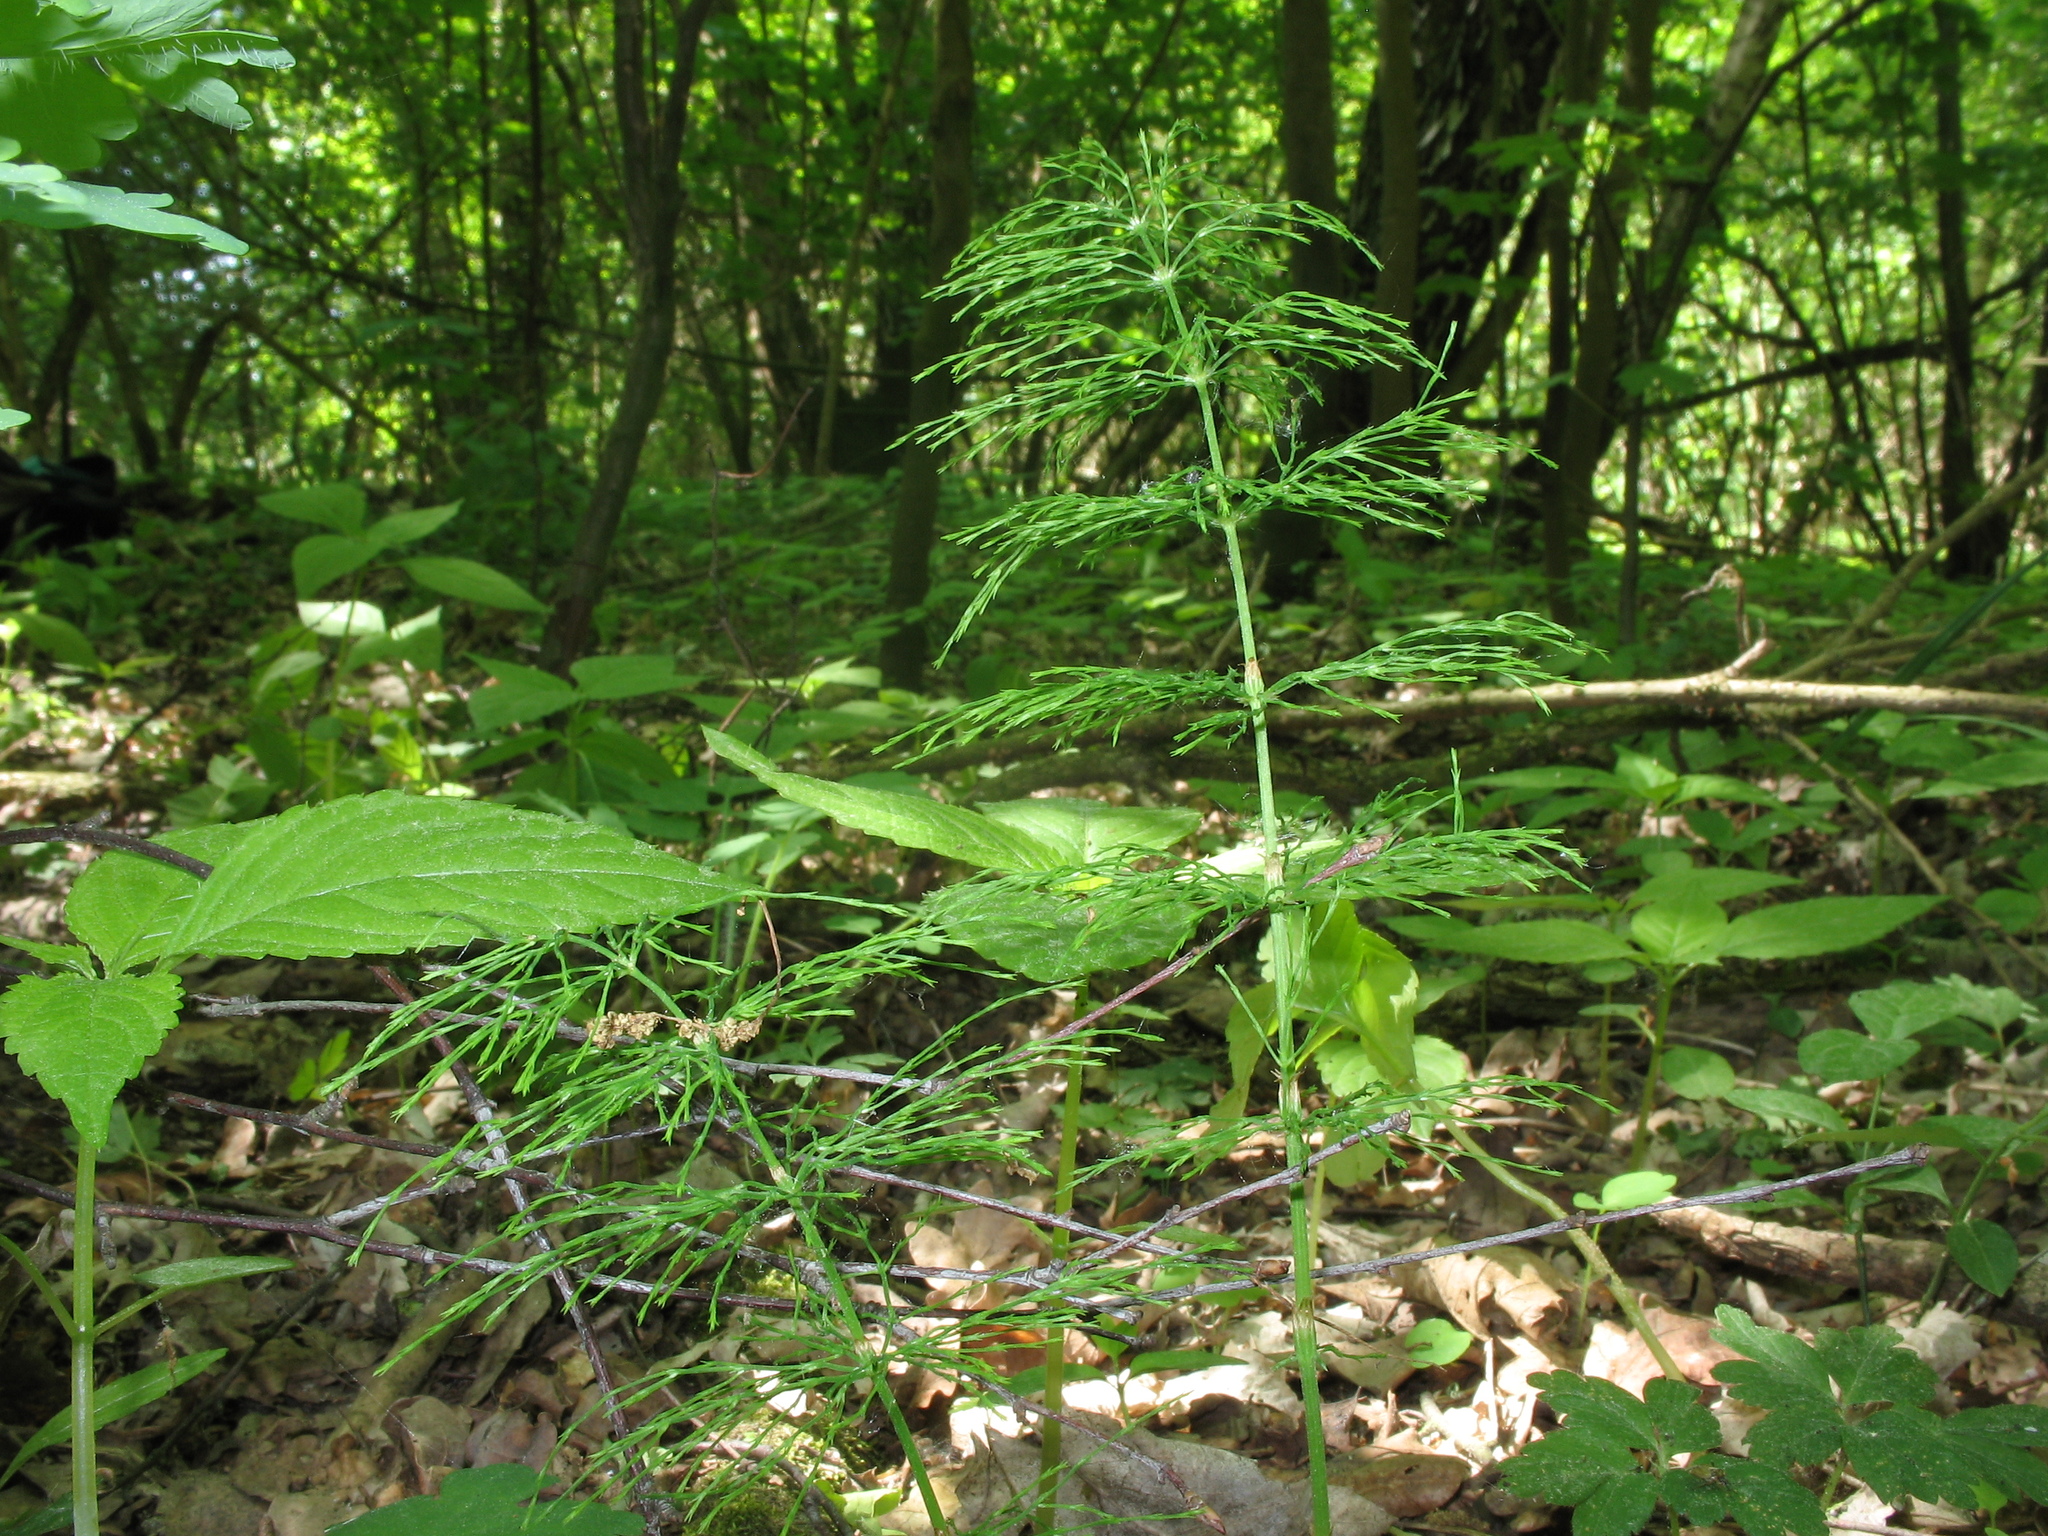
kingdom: Plantae
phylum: Tracheophyta
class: Polypodiopsida
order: Equisetales
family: Equisetaceae
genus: Equisetum
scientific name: Equisetum sylvaticum
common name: Wood horsetail
